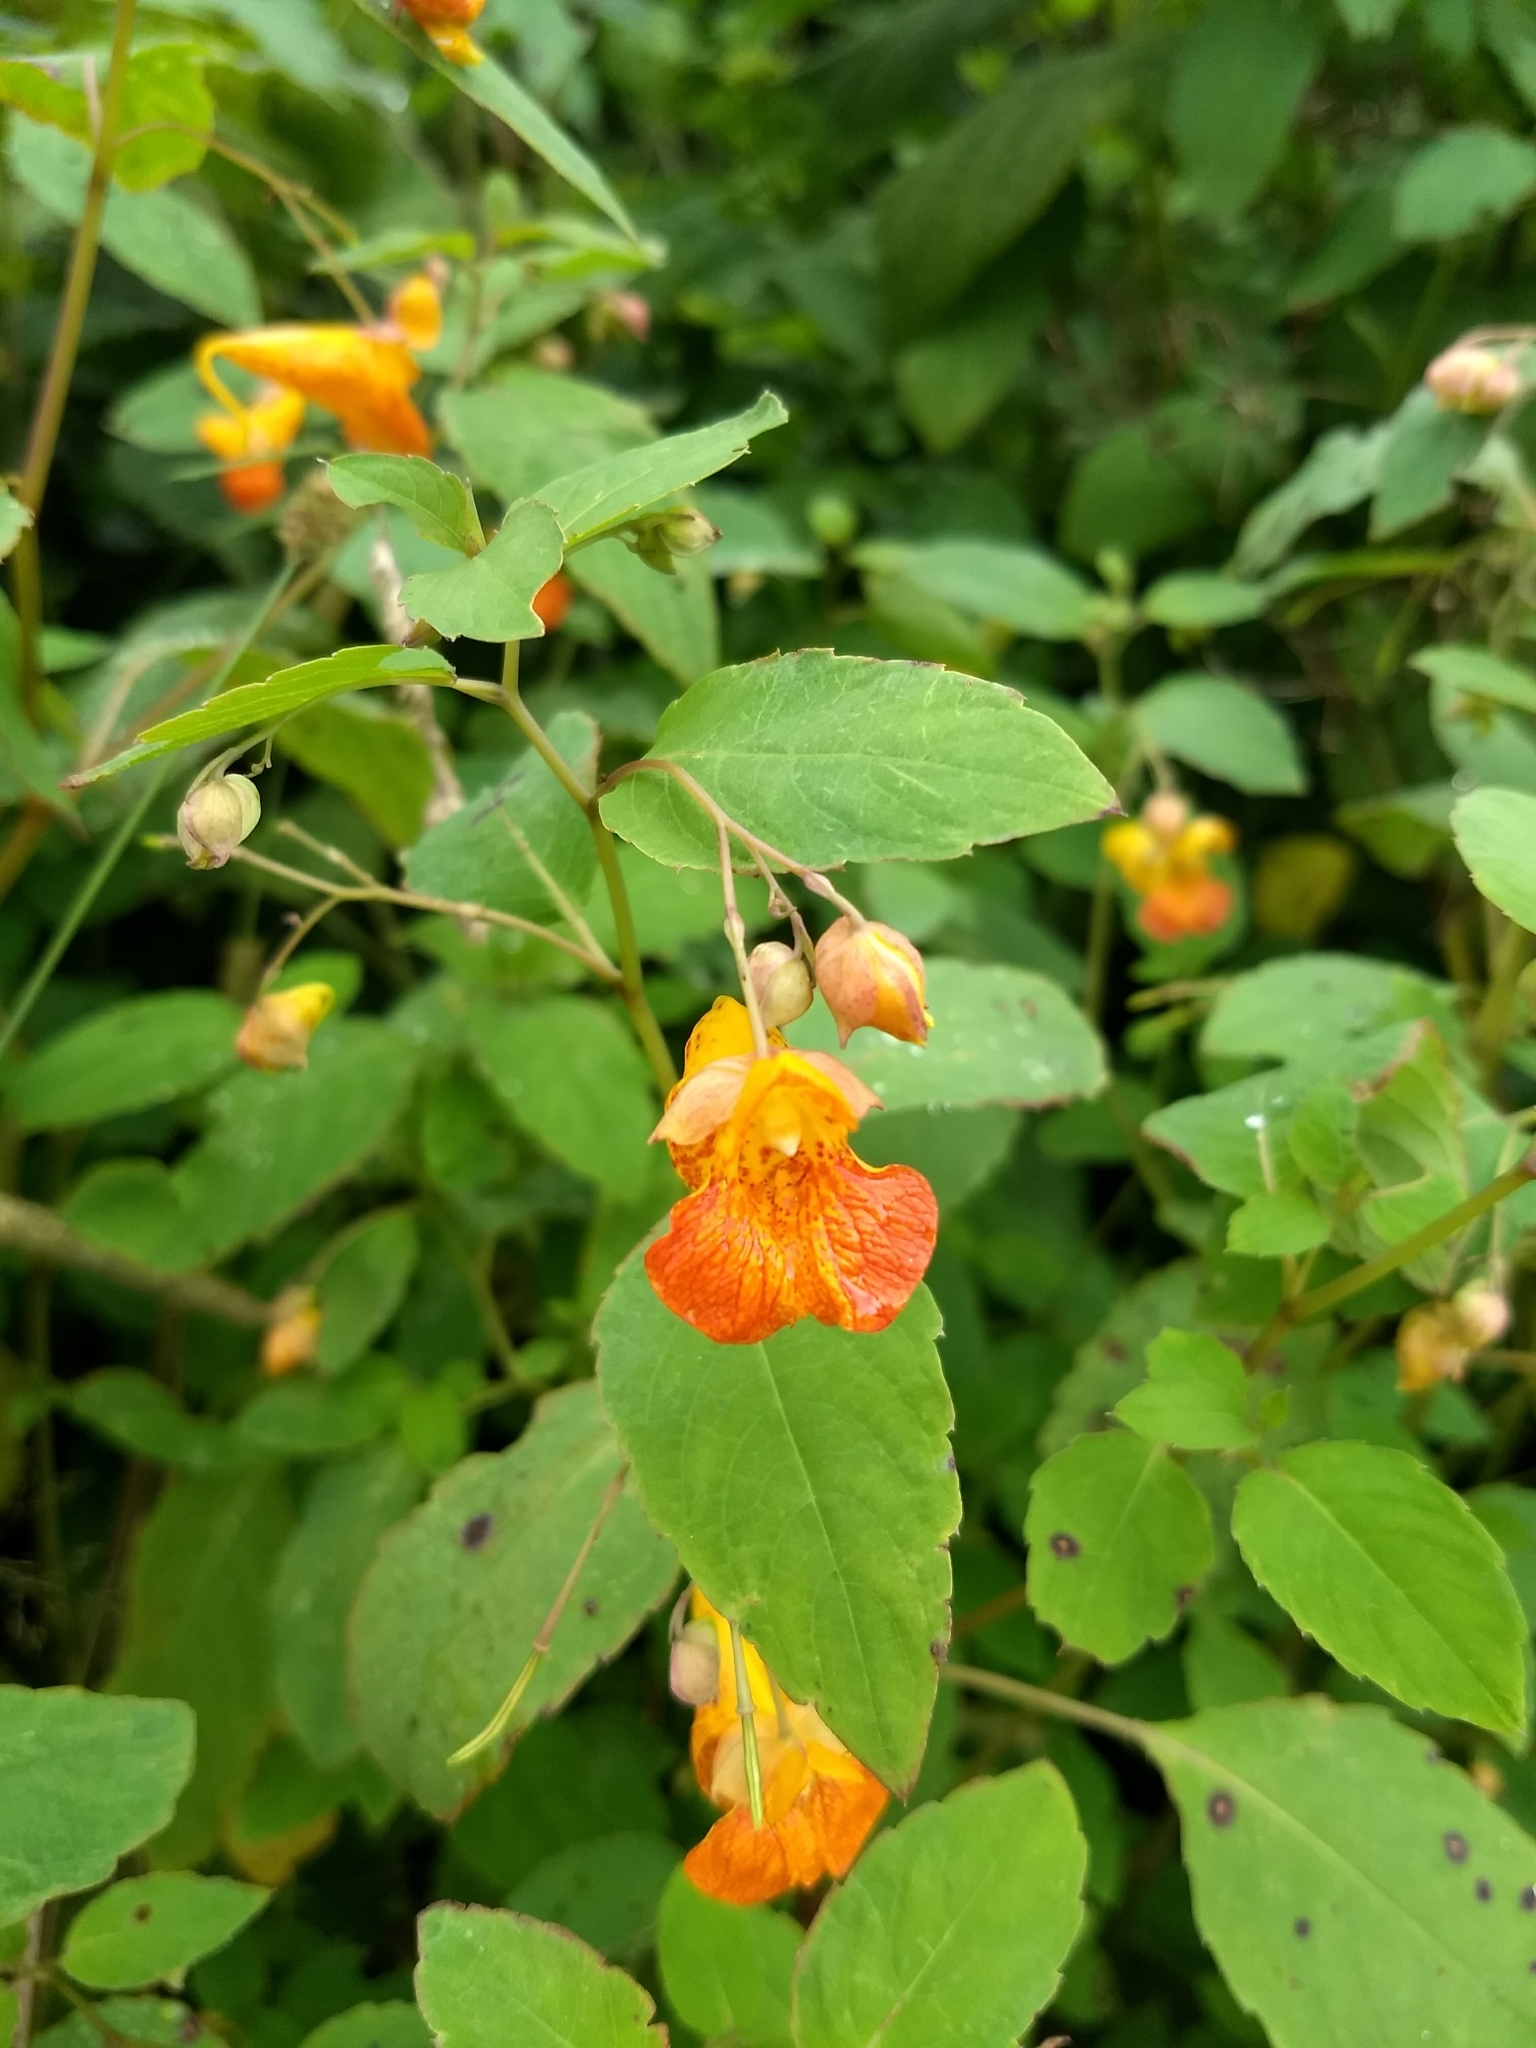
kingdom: Plantae
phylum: Tracheophyta
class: Magnoliopsida
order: Ericales
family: Balsaminaceae
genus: Impatiens
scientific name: Impatiens capensis
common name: Orange balsam
